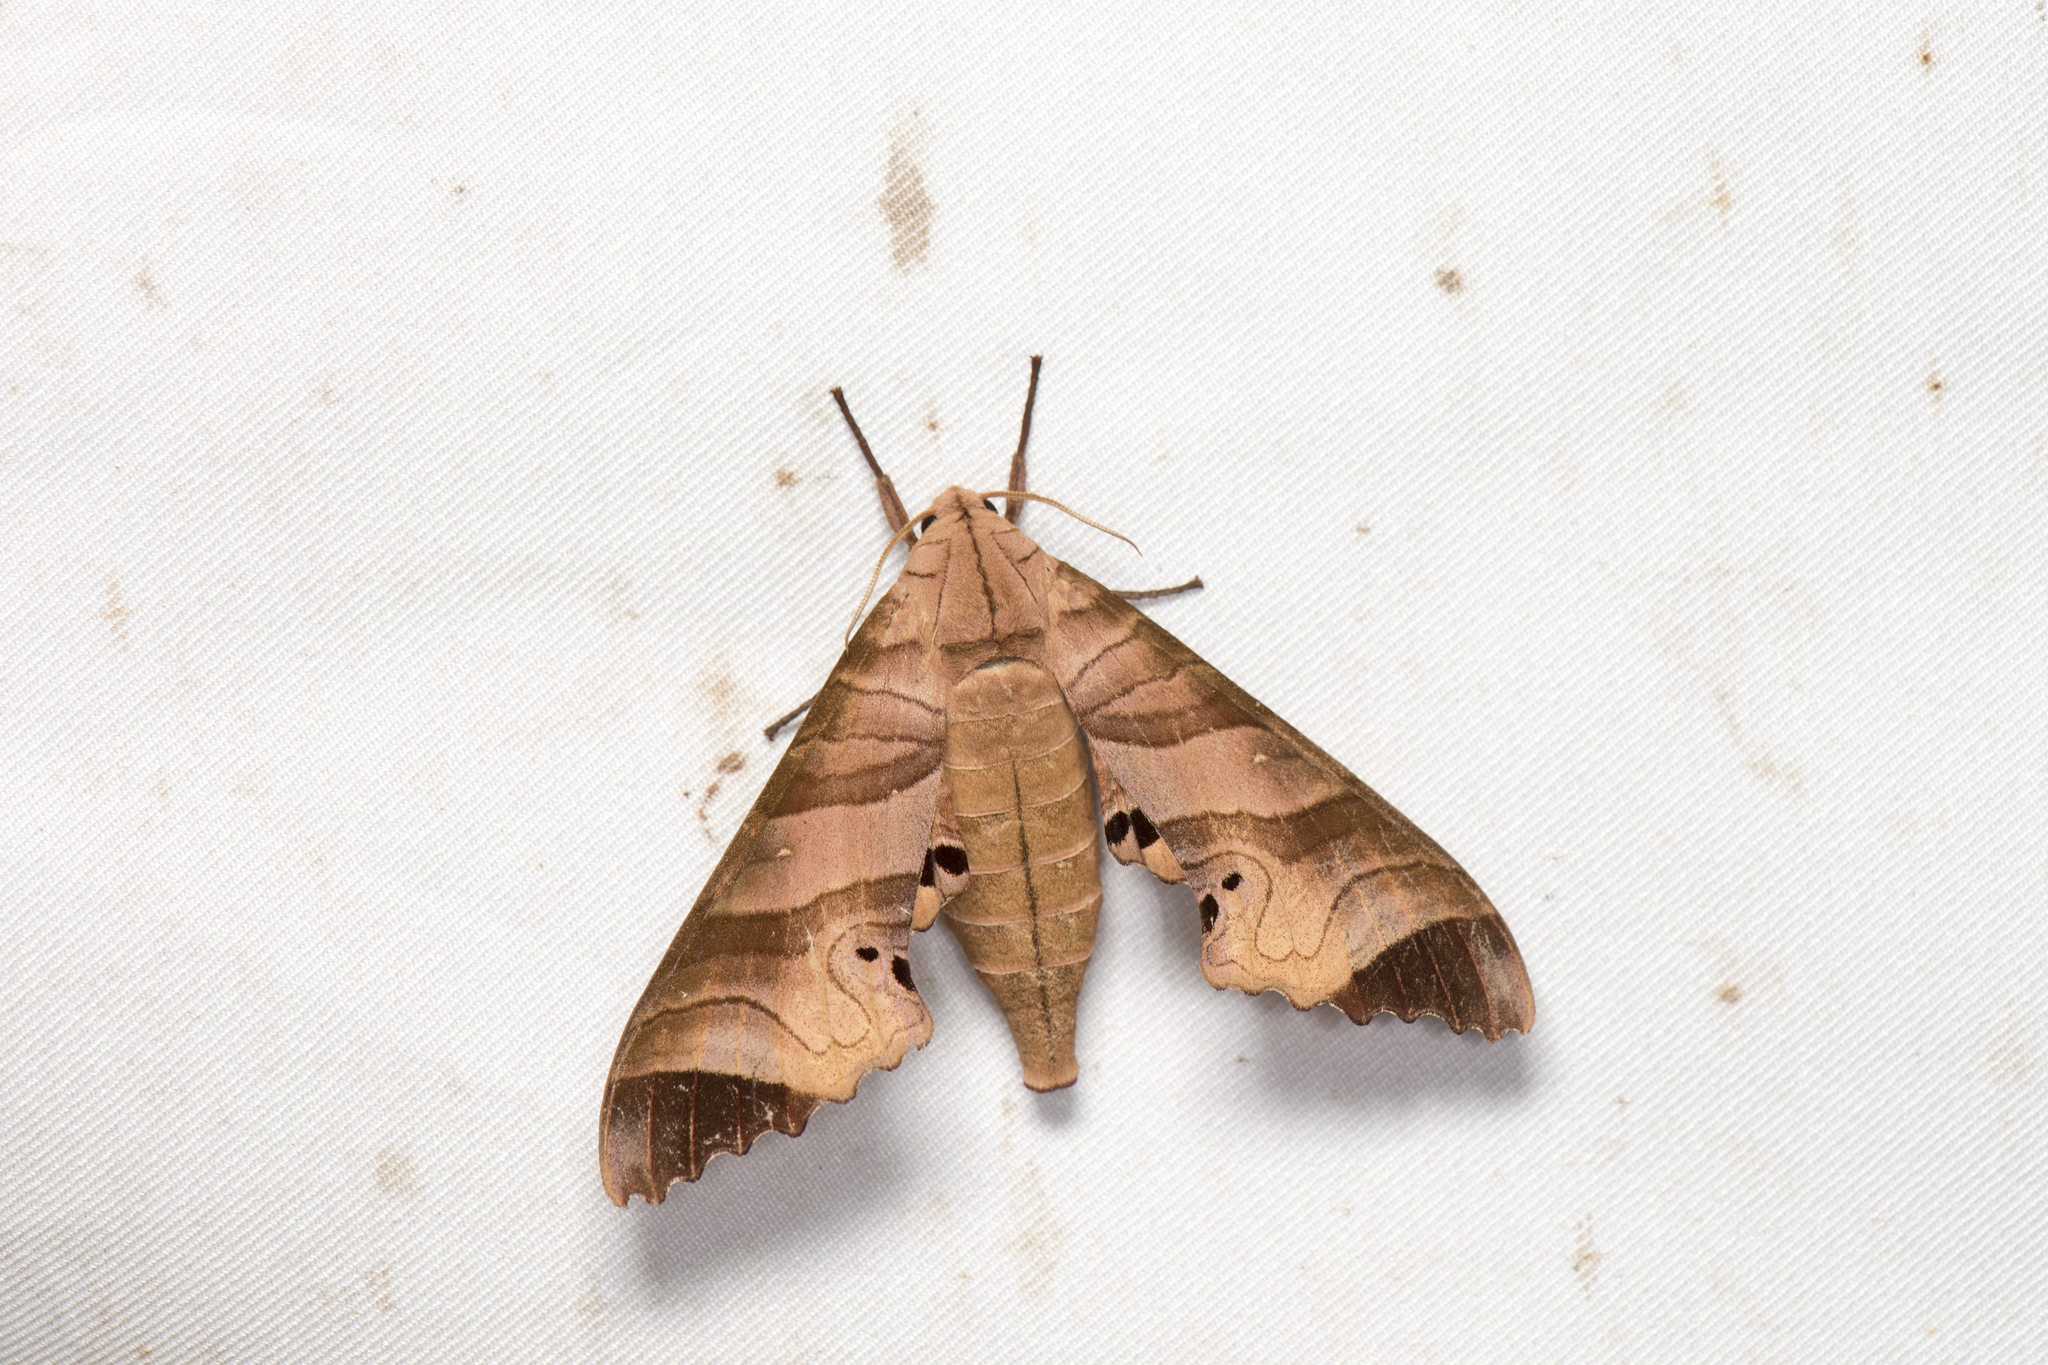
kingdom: Animalia
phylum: Arthropoda
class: Insecta
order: Lepidoptera
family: Sphingidae
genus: Marumba
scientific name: Marumba saishiuana
